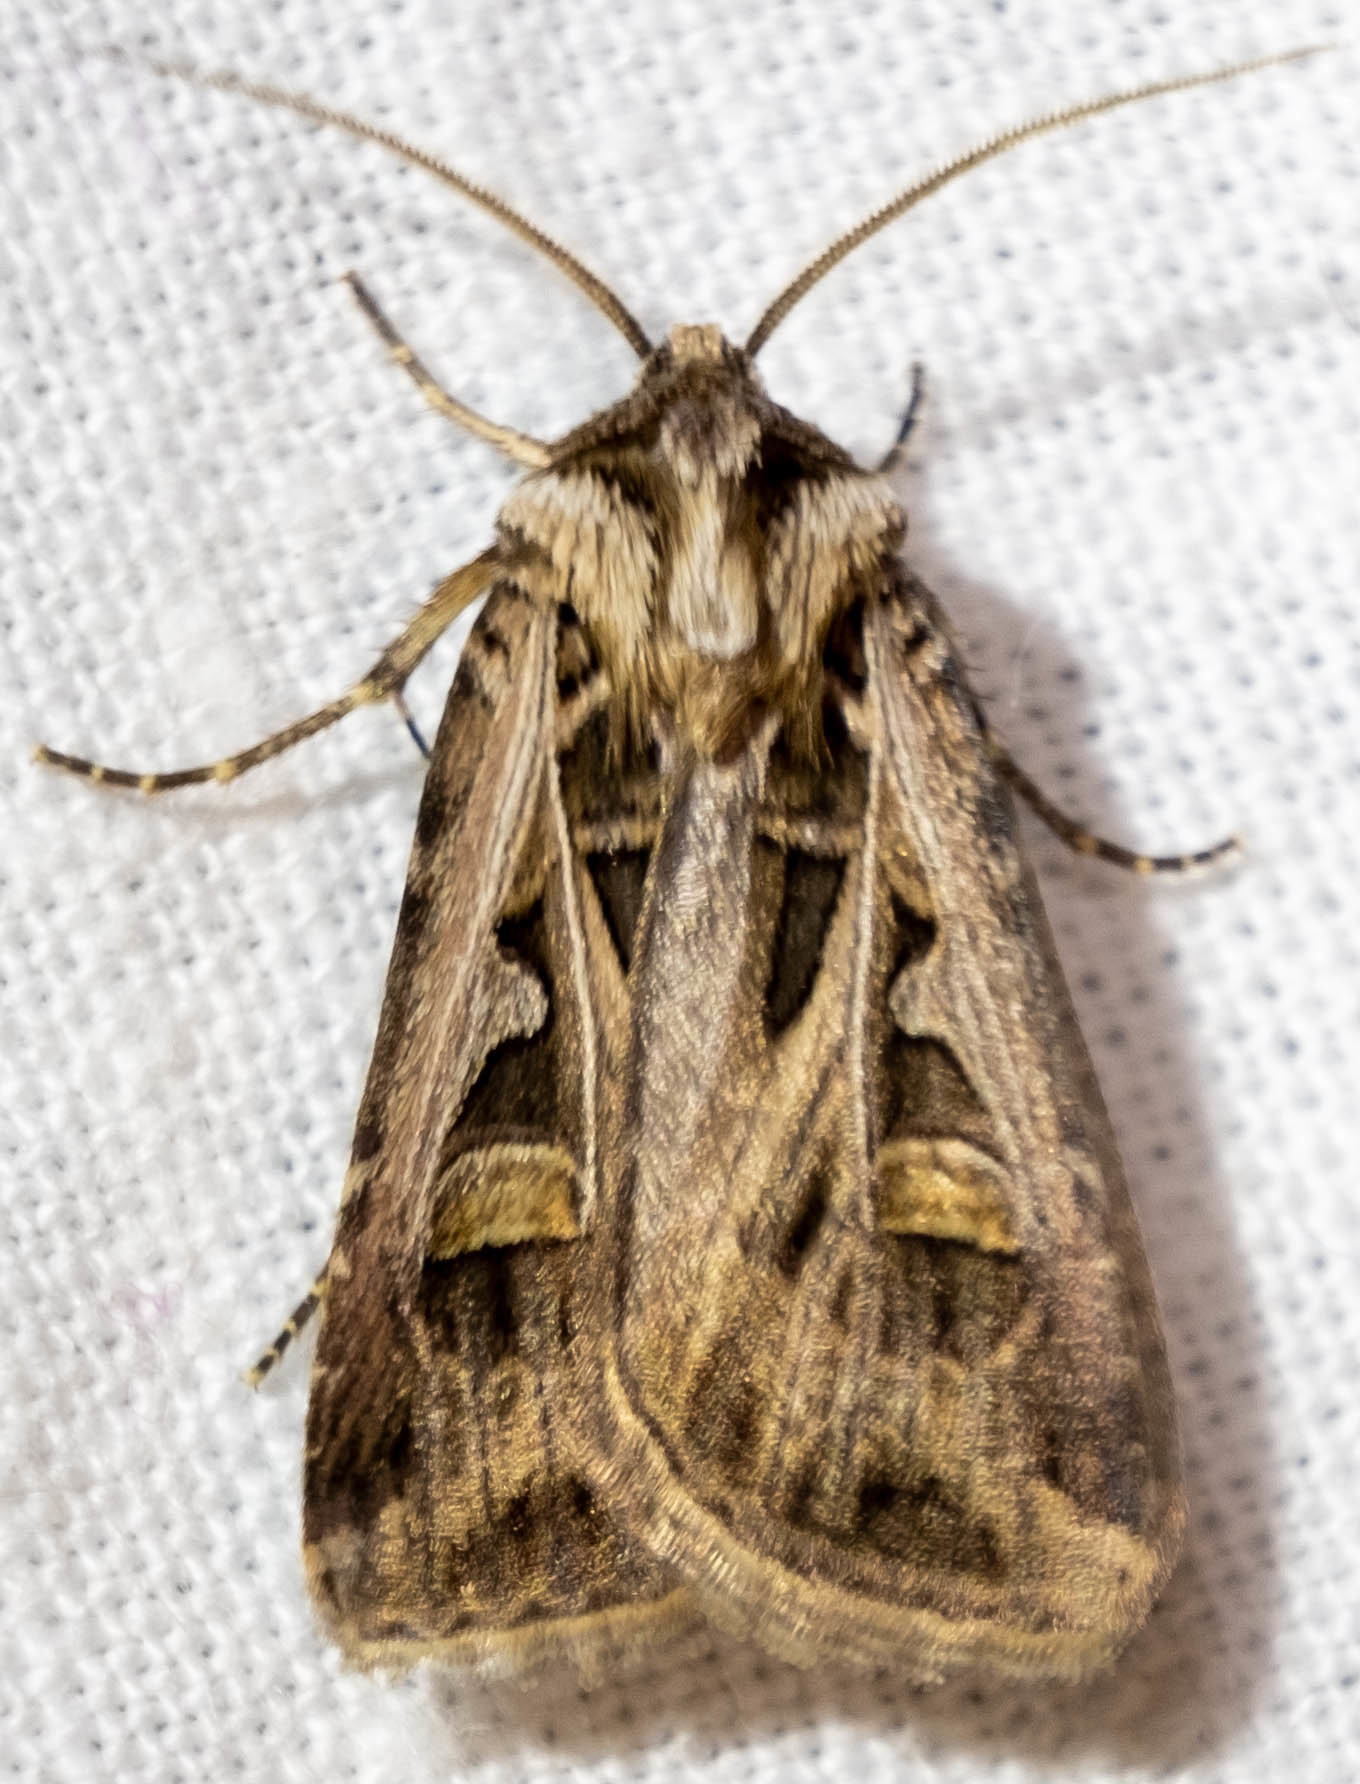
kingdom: Animalia
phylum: Arthropoda
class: Insecta
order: Lepidoptera
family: Noctuidae
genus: Feltia
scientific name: Feltia jaculifera
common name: Dingy cutworm moth
